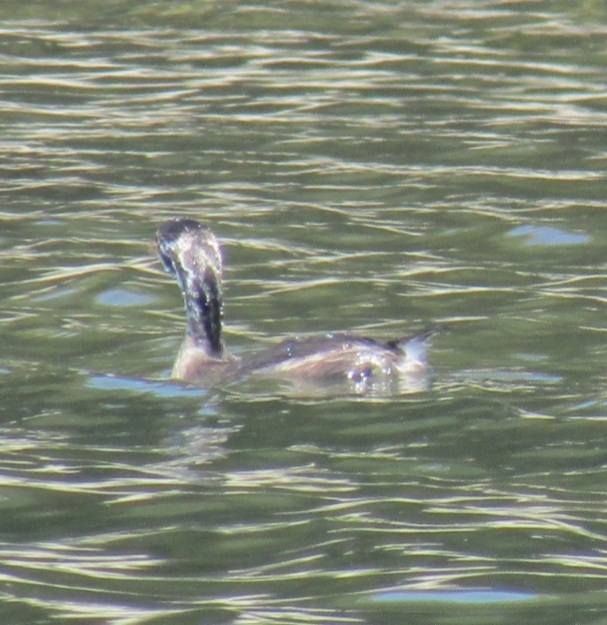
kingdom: Animalia
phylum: Chordata
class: Aves
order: Podicipediformes
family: Podicipedidae
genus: Podilymbus
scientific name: Podilymbus podiceps
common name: Pied-billed grebe
